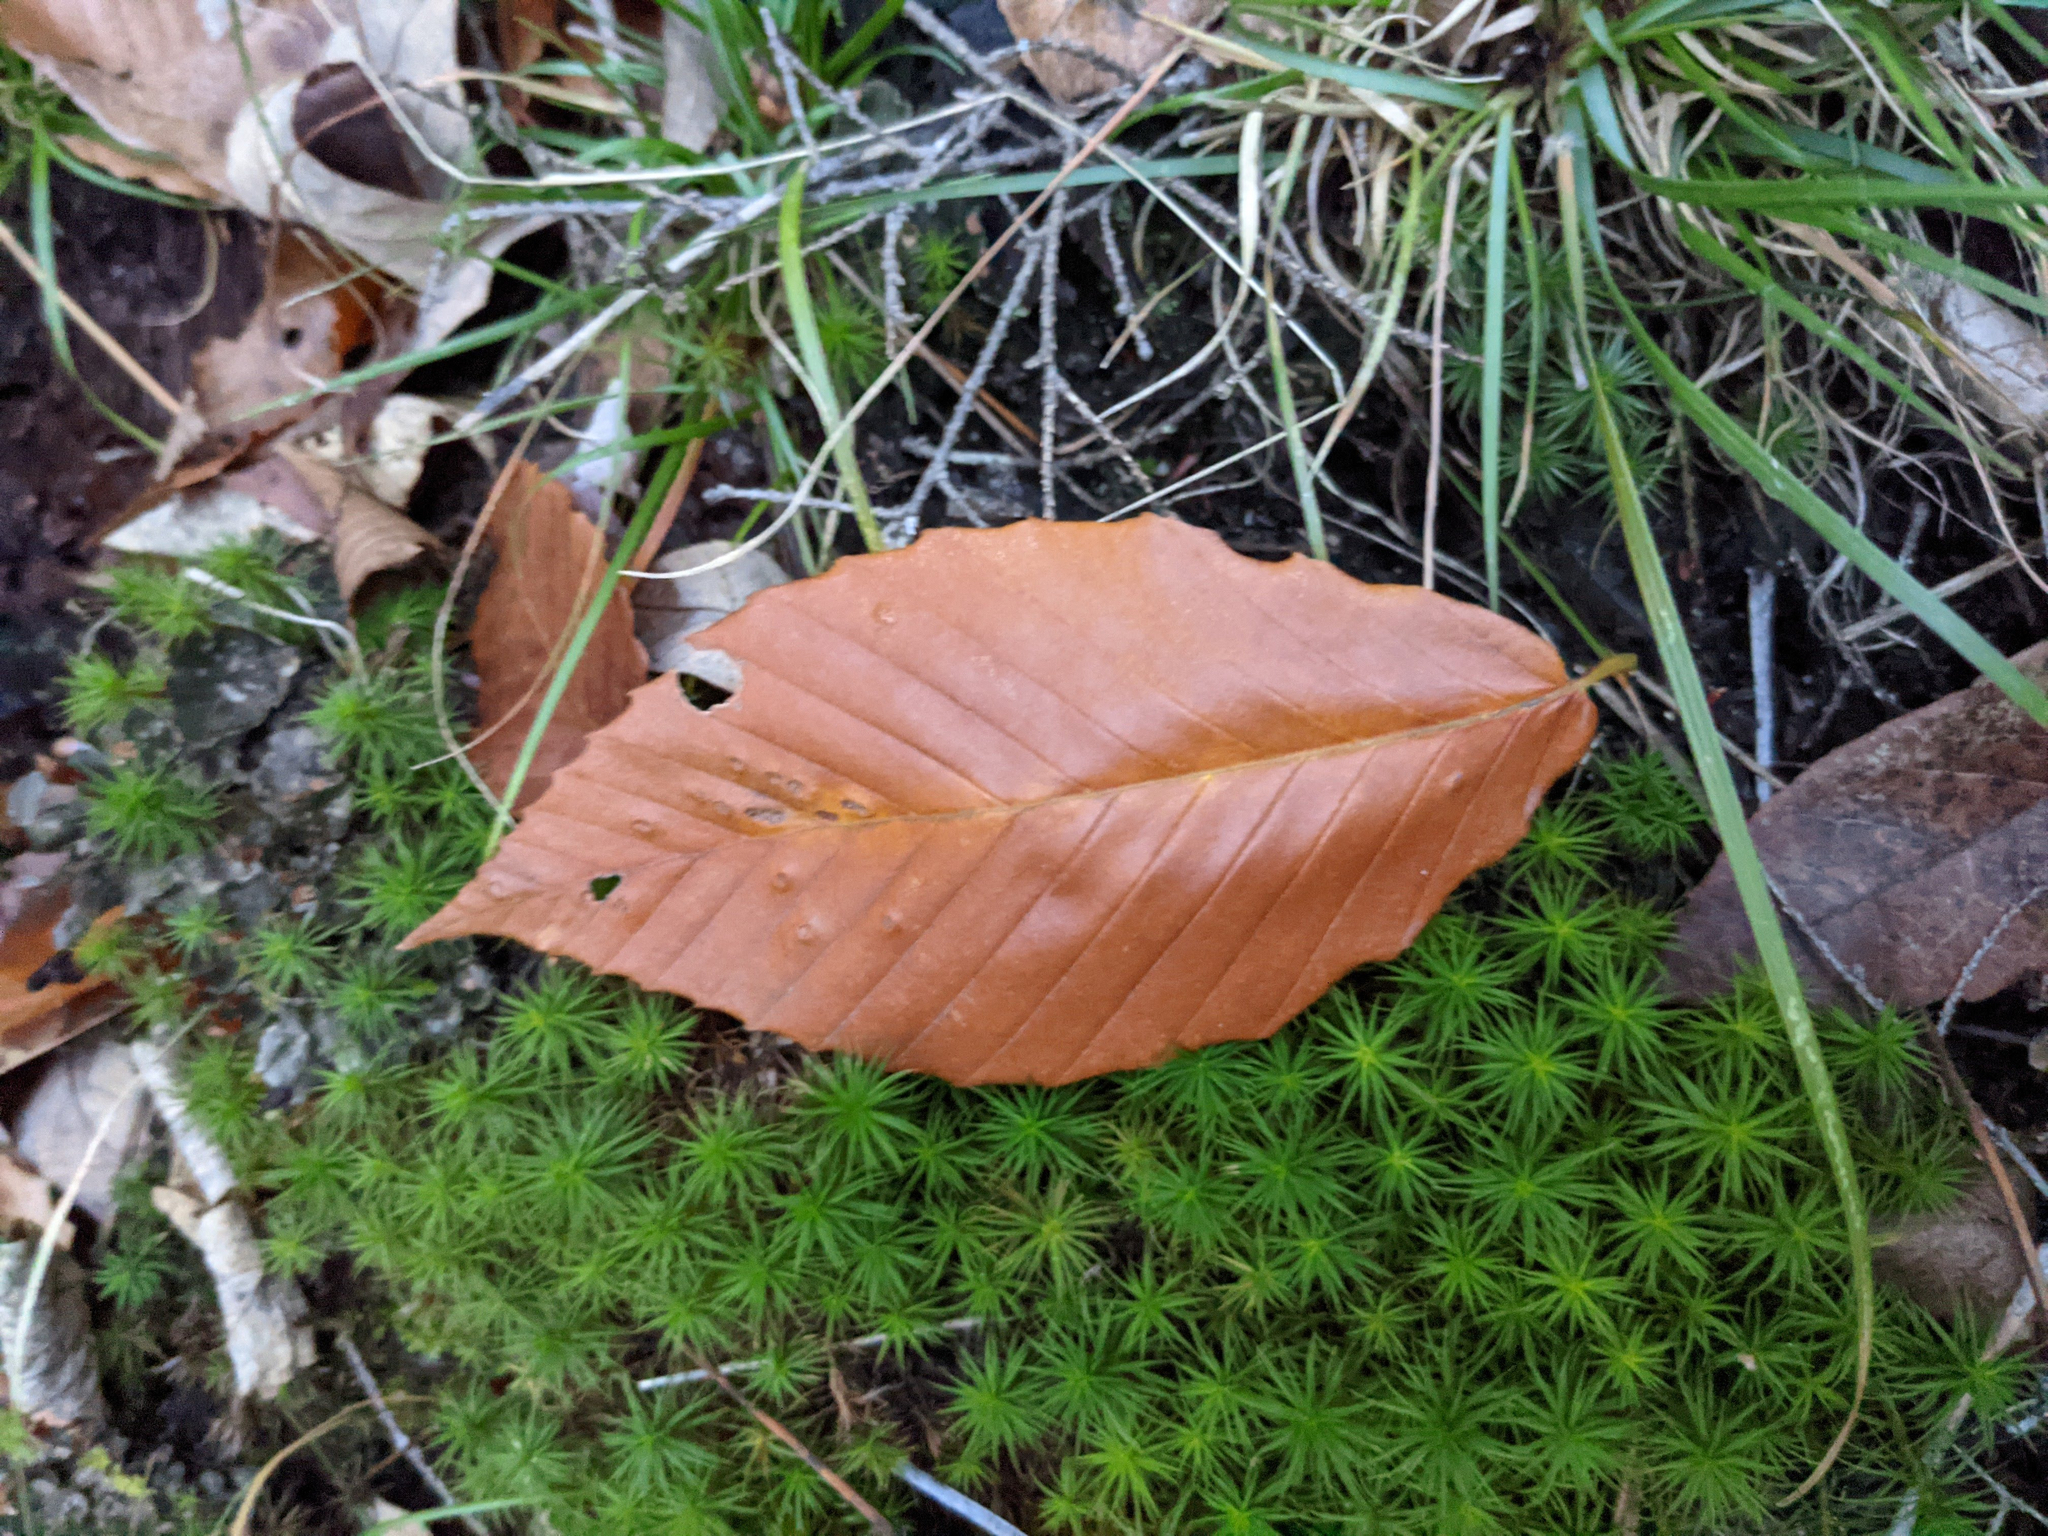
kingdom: Plantae
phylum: Tracheophyta
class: Magnoliopsida
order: Fagales
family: Fagaceae
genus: Fagus
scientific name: Fagus grandifolia
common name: American beech
